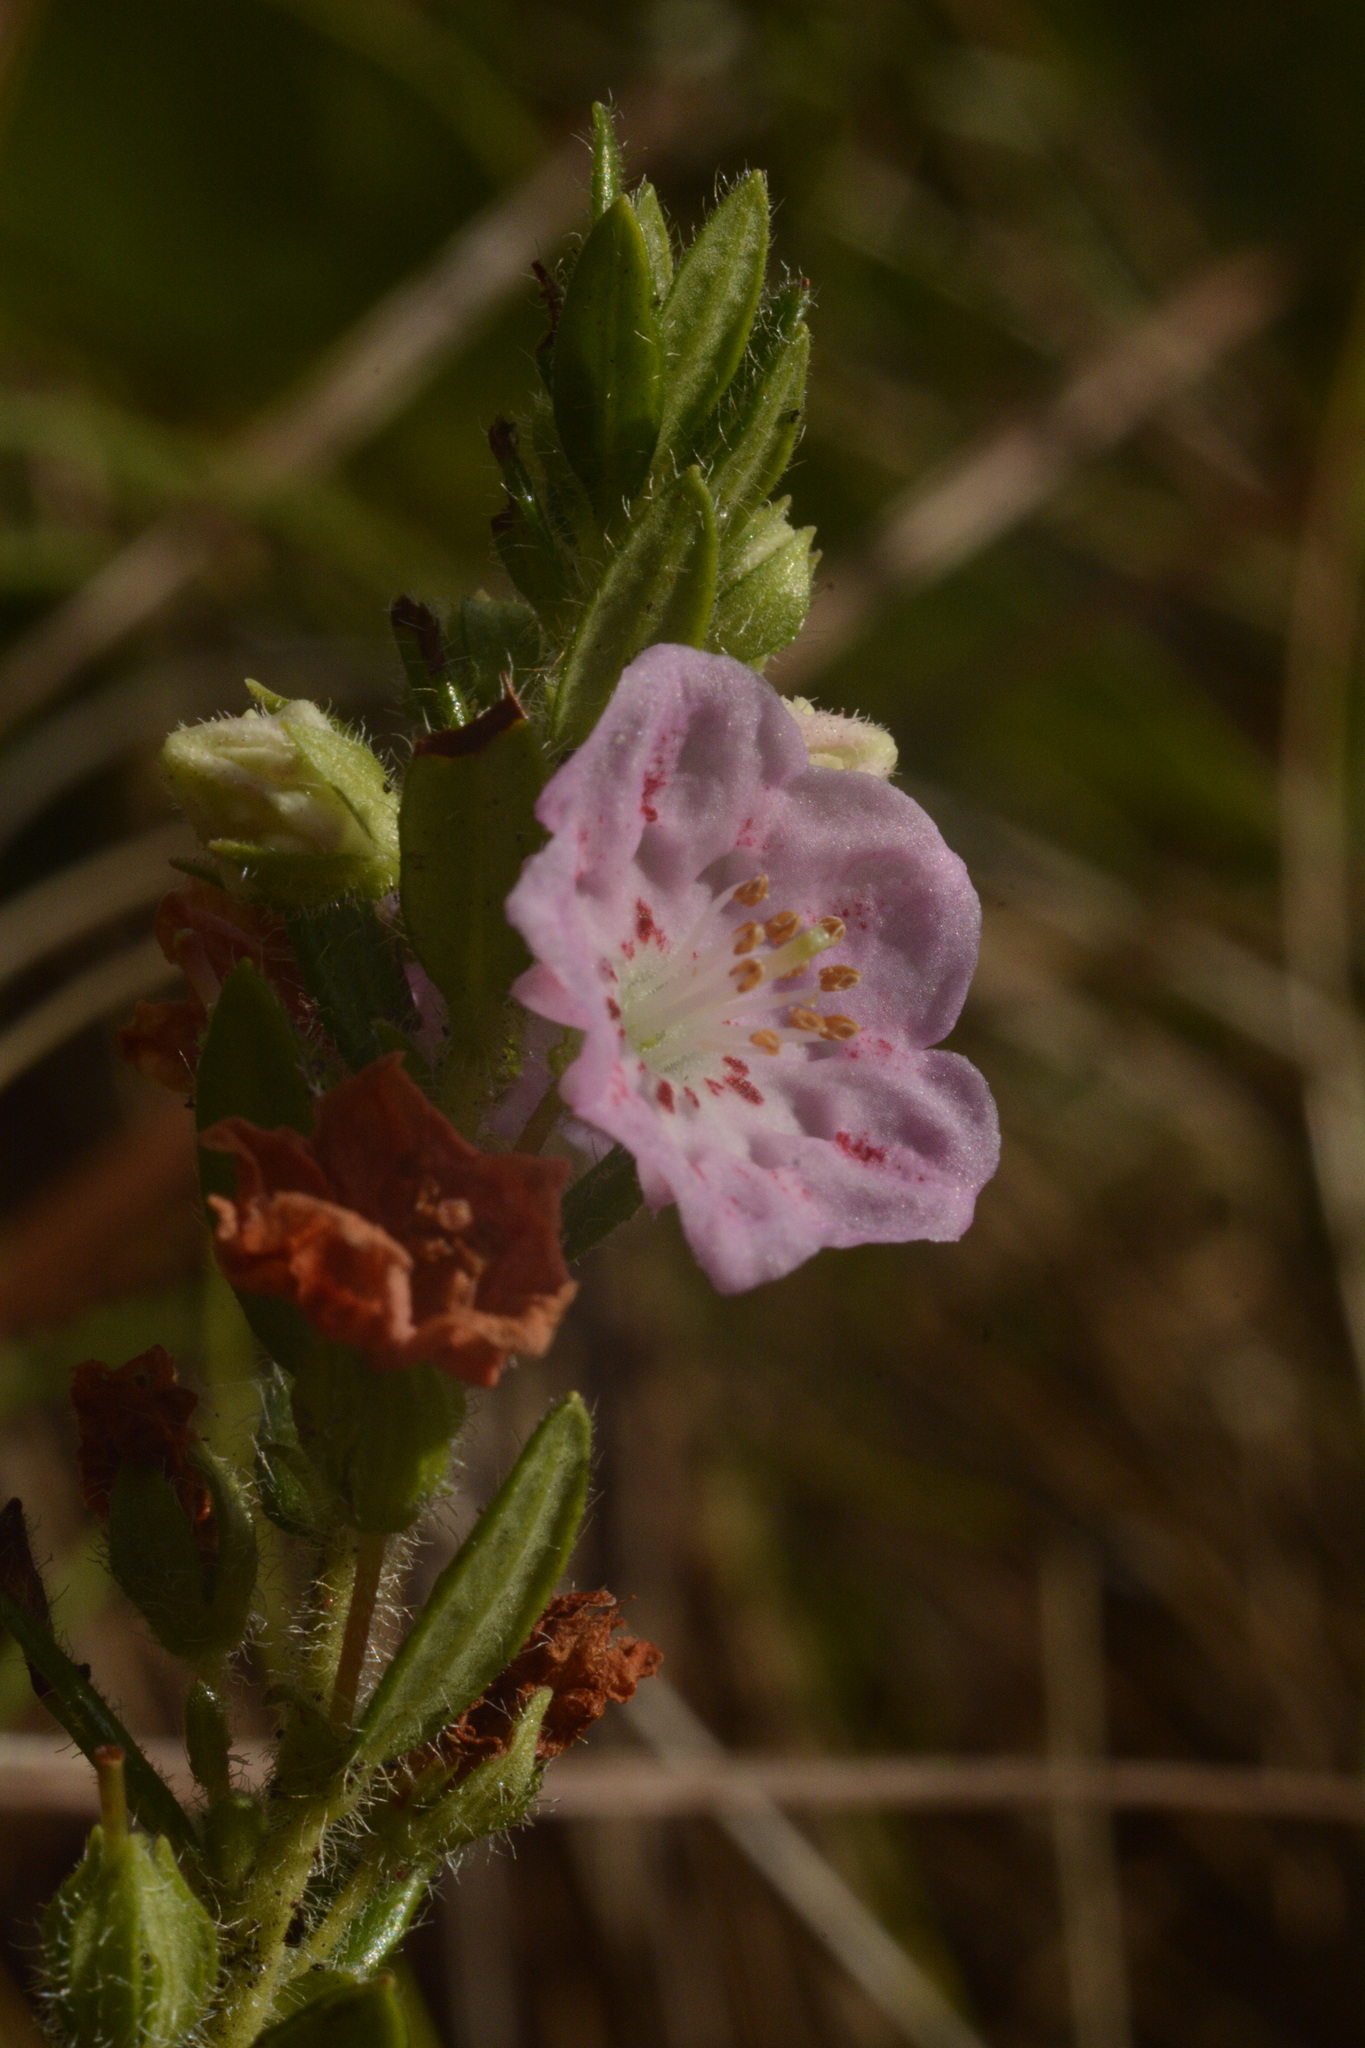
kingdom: Plantae
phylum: Tracheophyta
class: Magnoliopsida
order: Ericales
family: Ericaceae
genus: Kalmia
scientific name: Kalmia hirsuta
